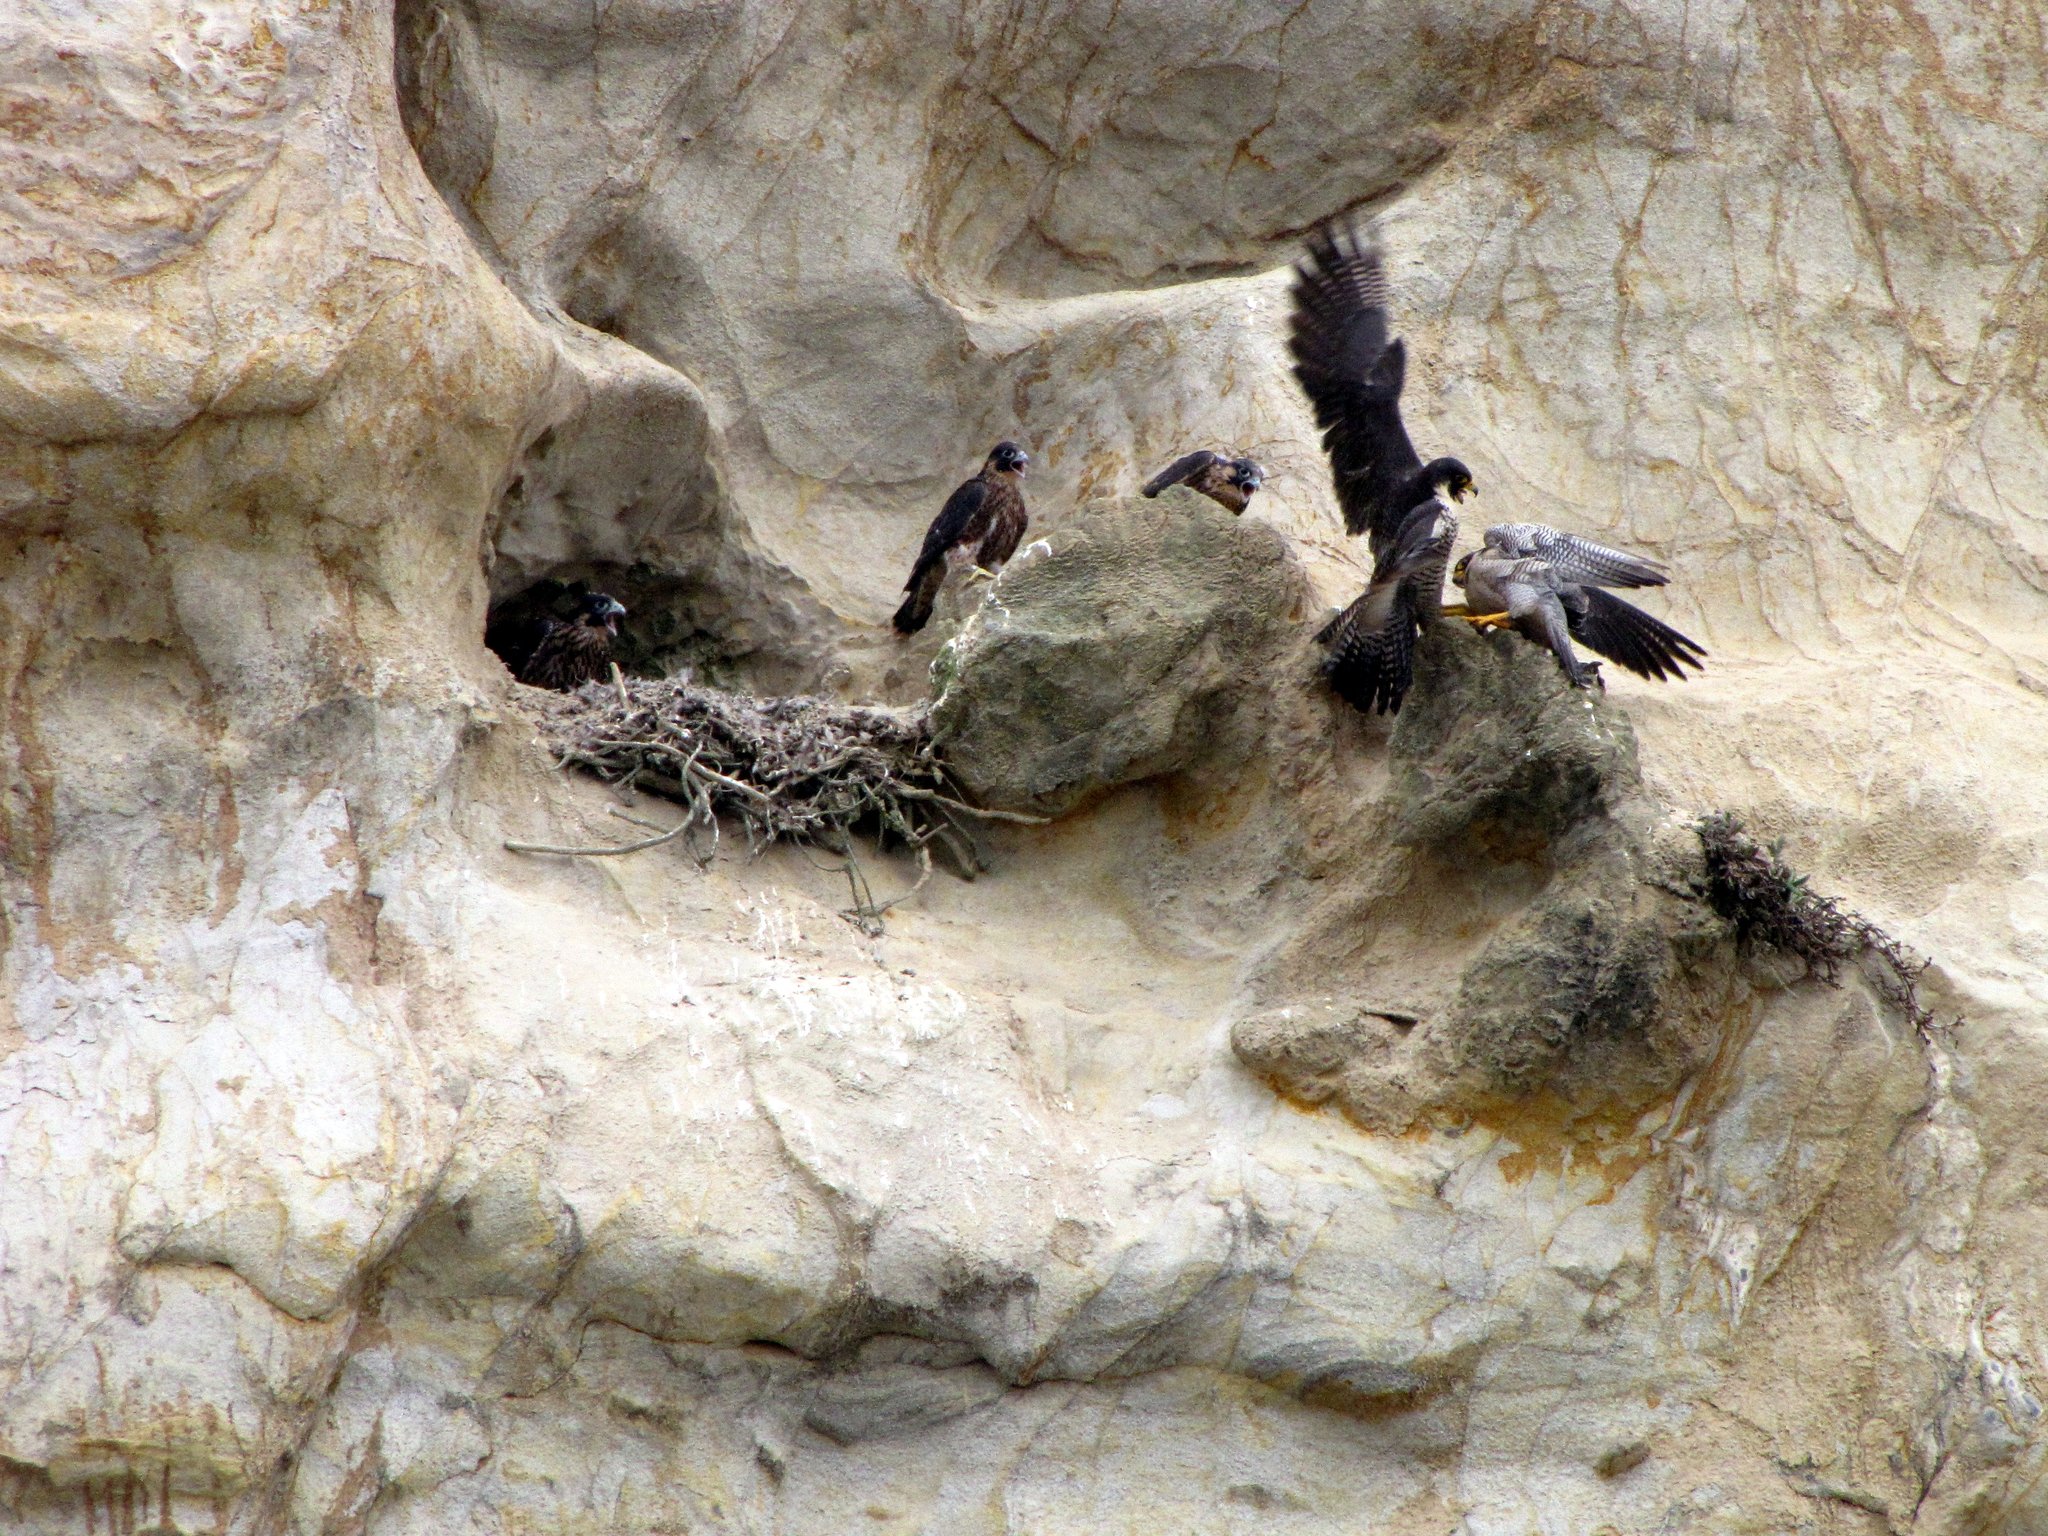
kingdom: Animalia
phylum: Chordata
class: Aves
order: Falconiformes
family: Falconidae
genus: Falco
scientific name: Falco peregrinus
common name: Peregrine falcon
